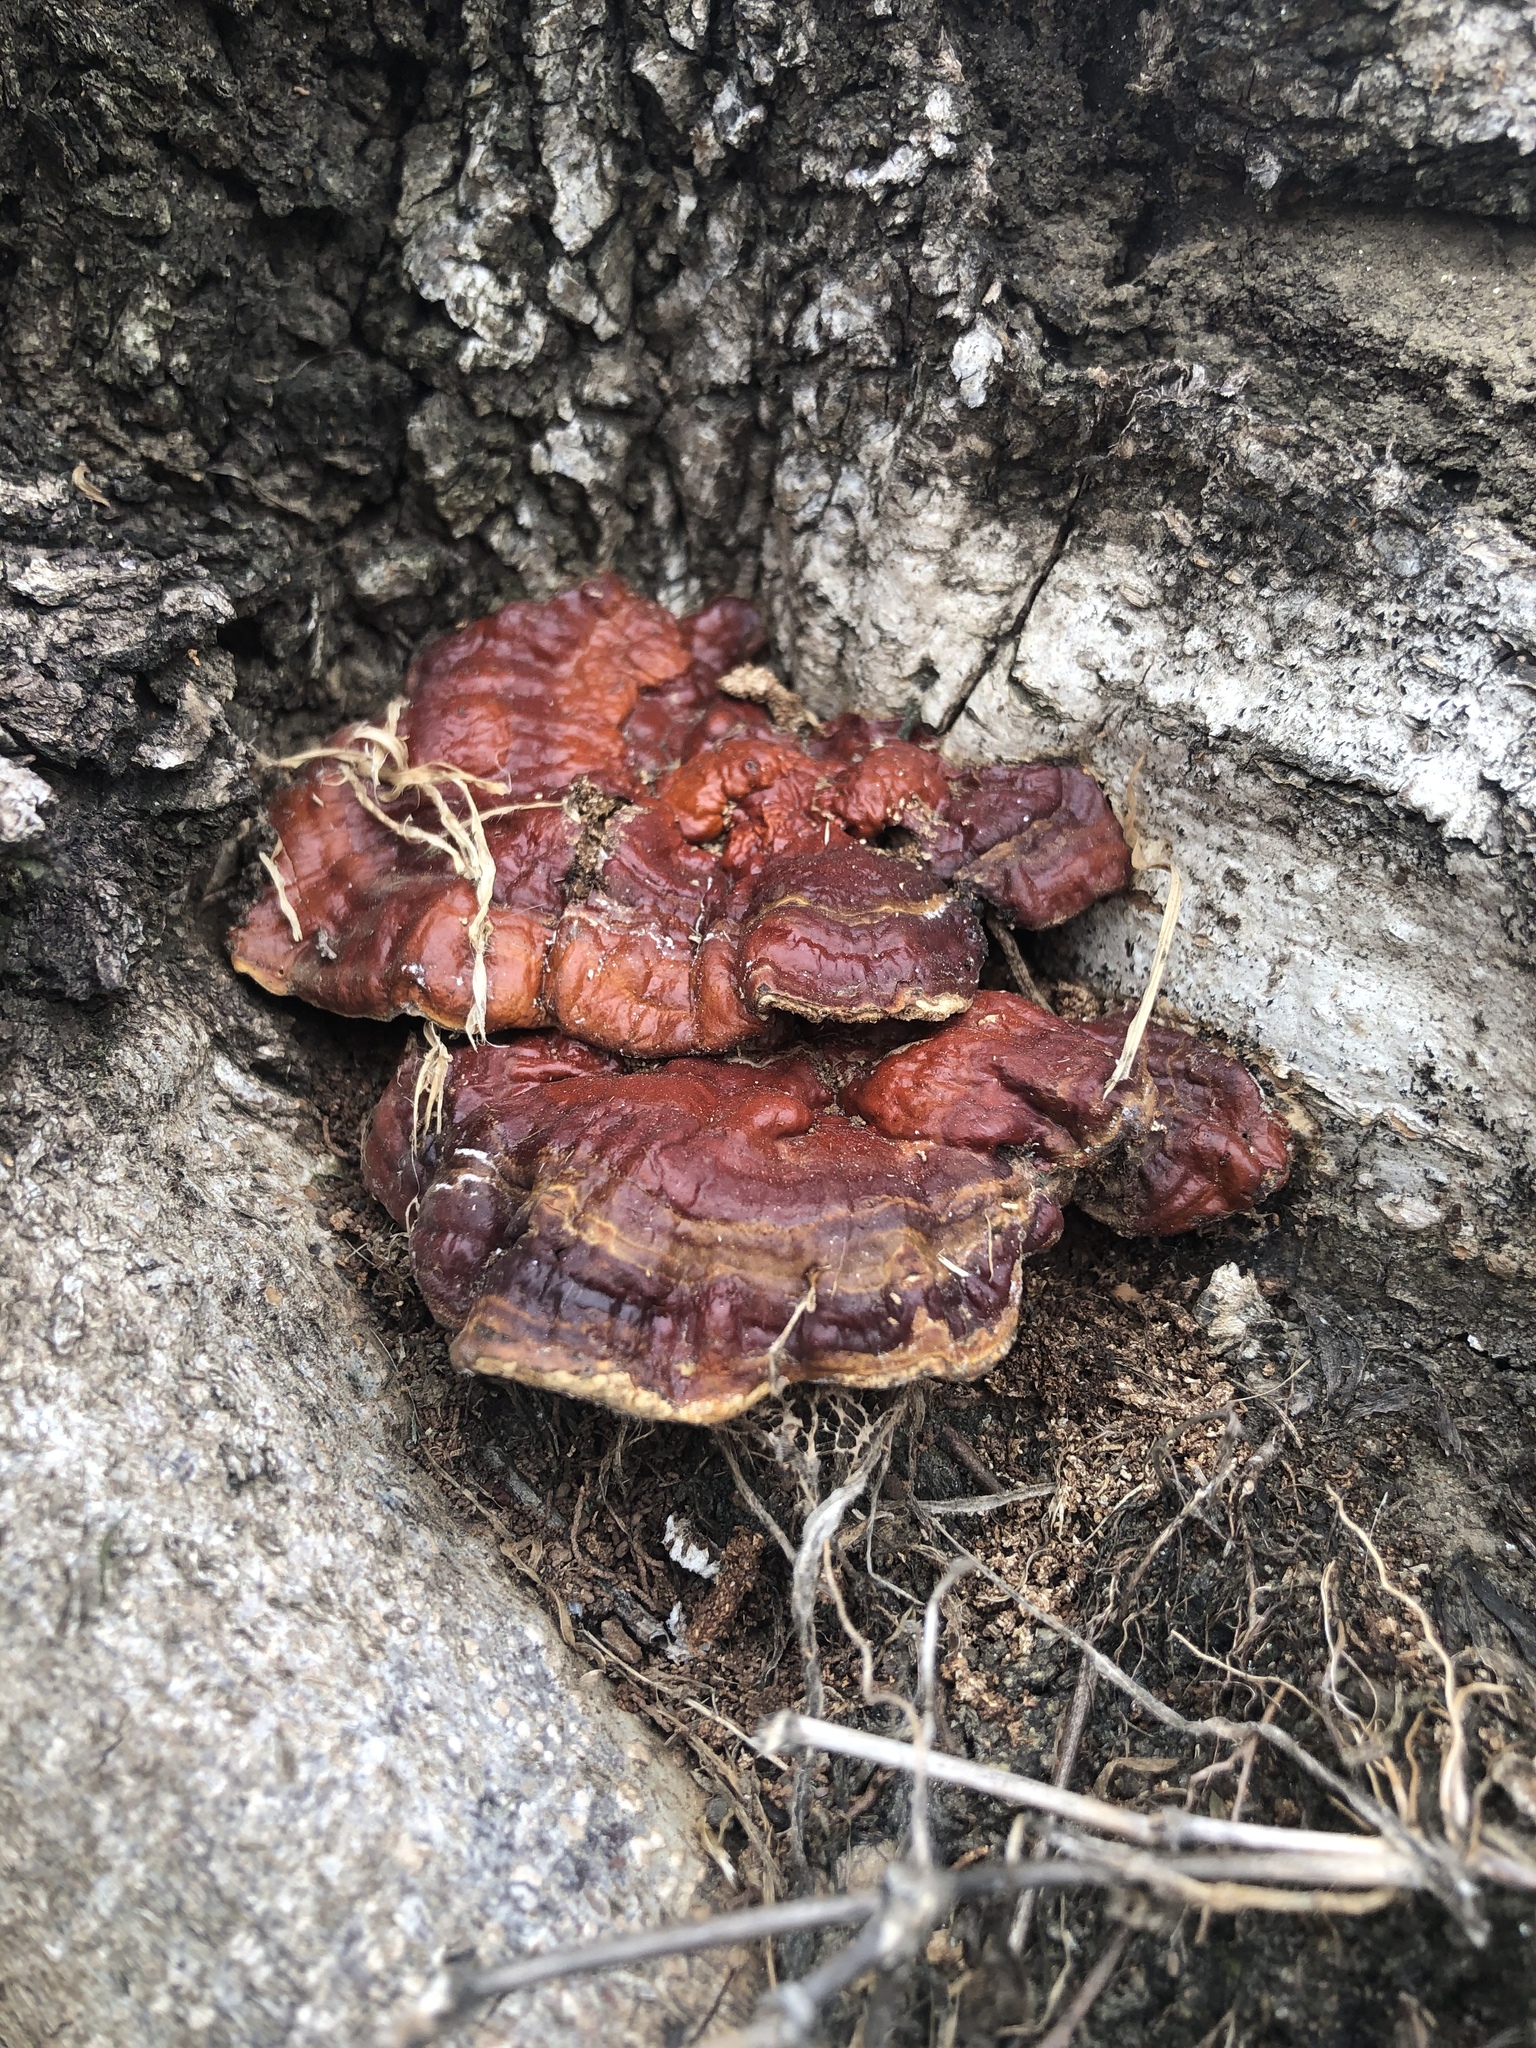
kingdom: Fungi
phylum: Basidiomycota
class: Agaricomycetes
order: Polyporales
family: Polyporaceae
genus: Ganoderma
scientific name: Ganoderma resinaceum
